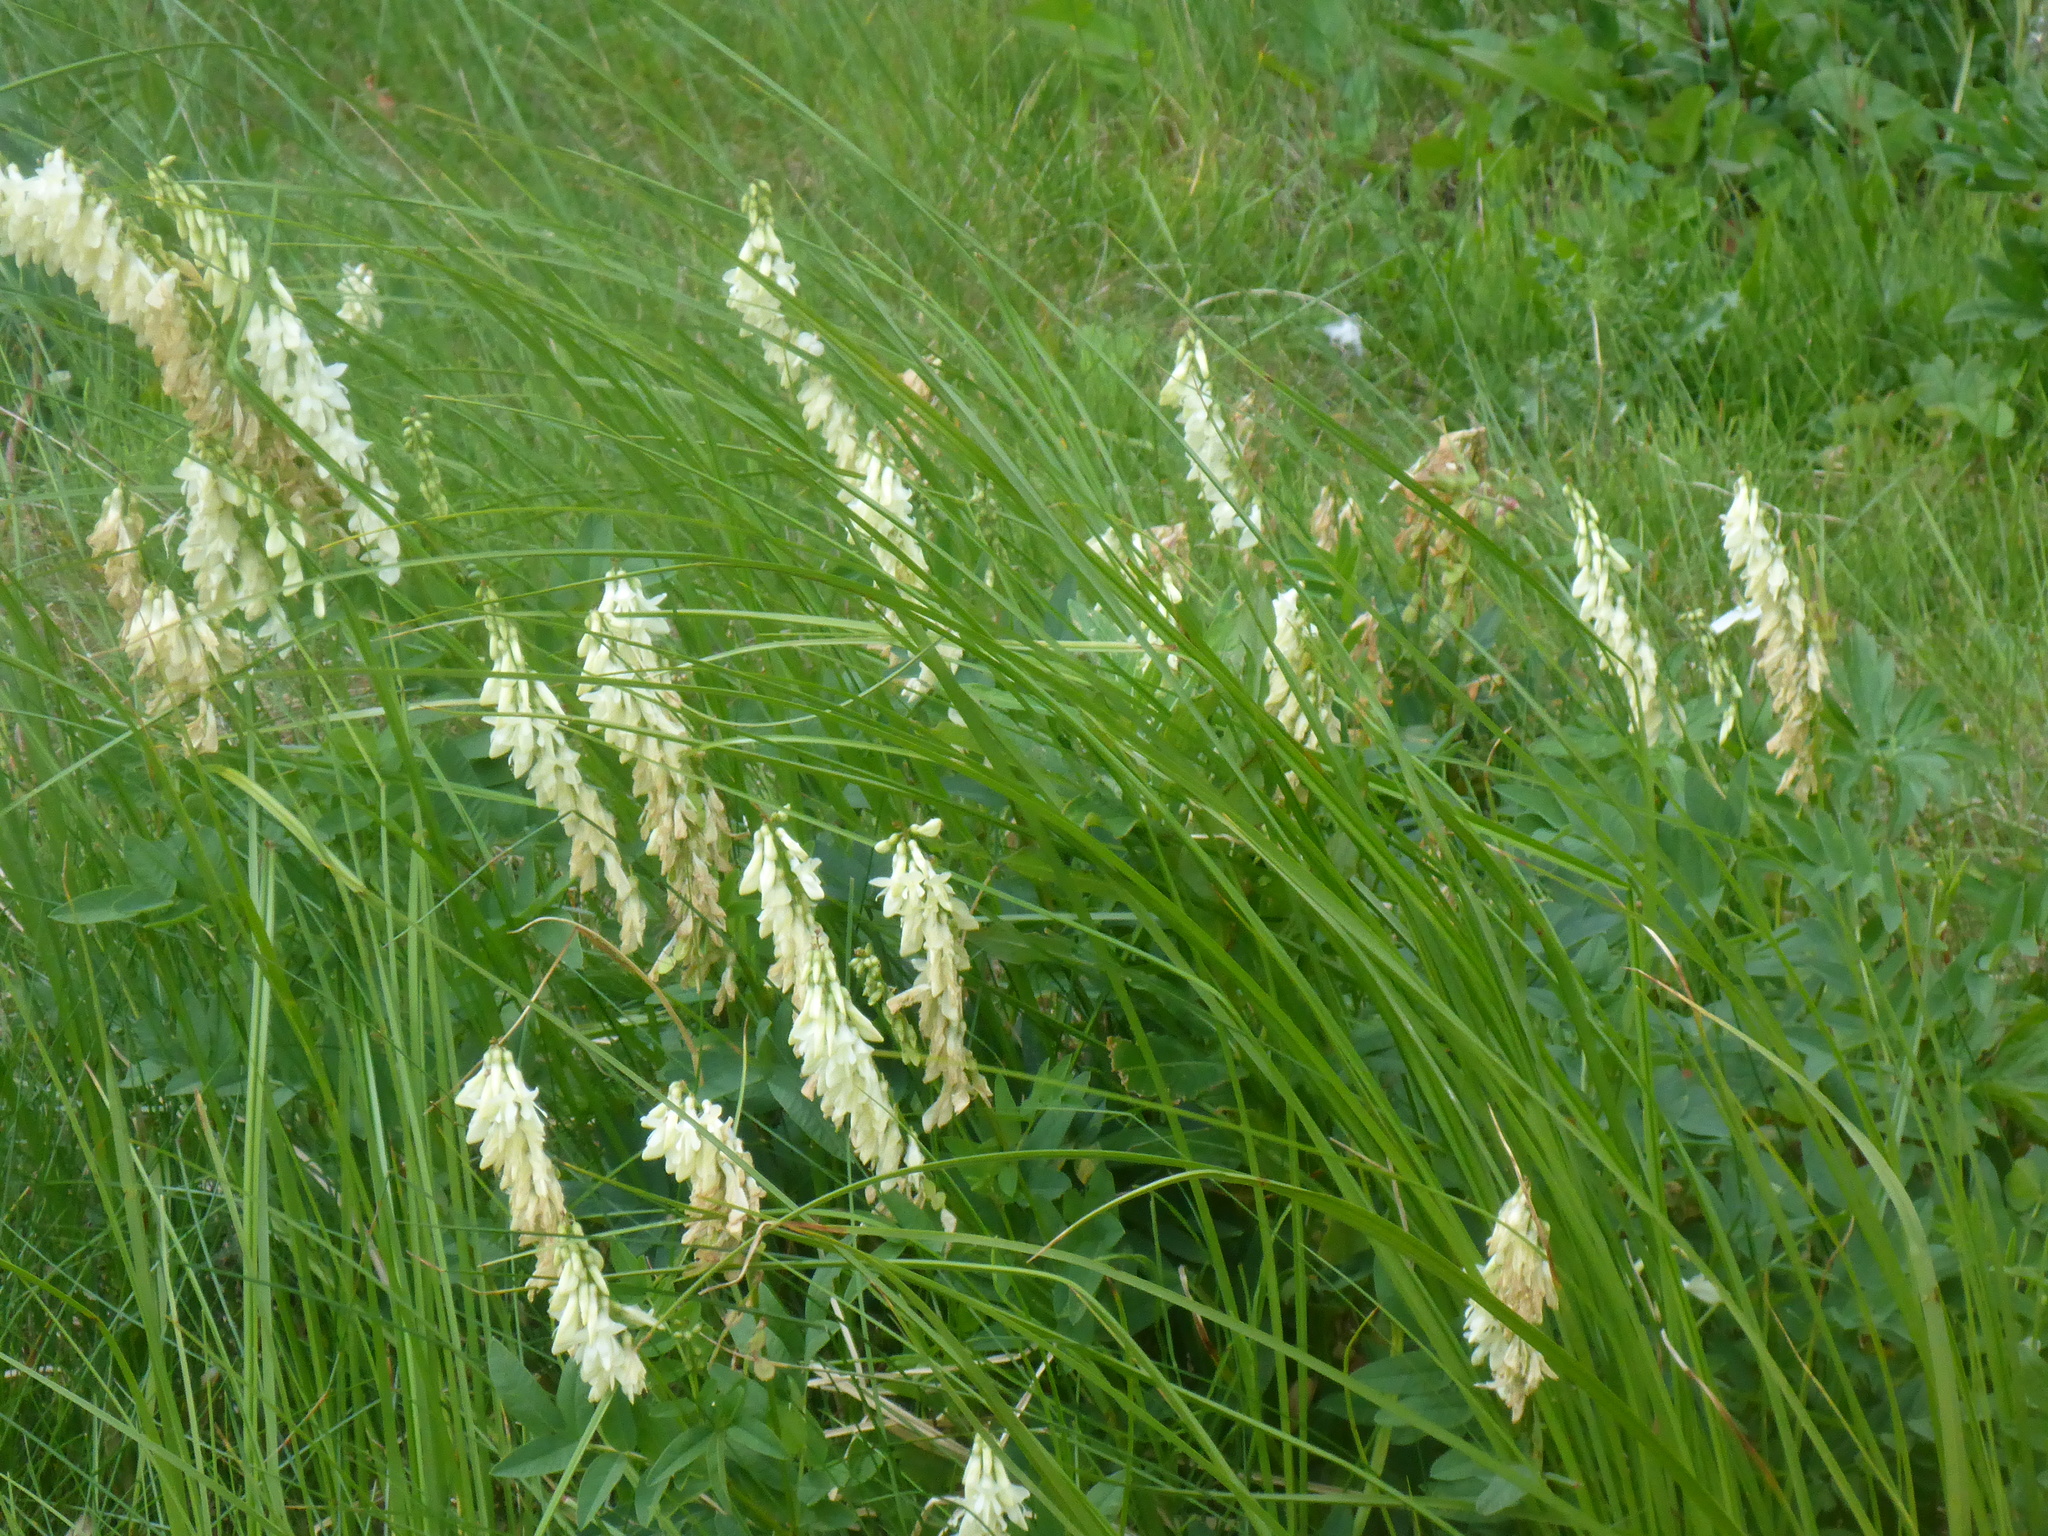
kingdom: Plantae
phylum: Tracheophyta
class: Magnoliopsida
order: Fabales
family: Fabaceae
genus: Hedysarum
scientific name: Hedysarum sulphurescens
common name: Sulphur hedysarum
